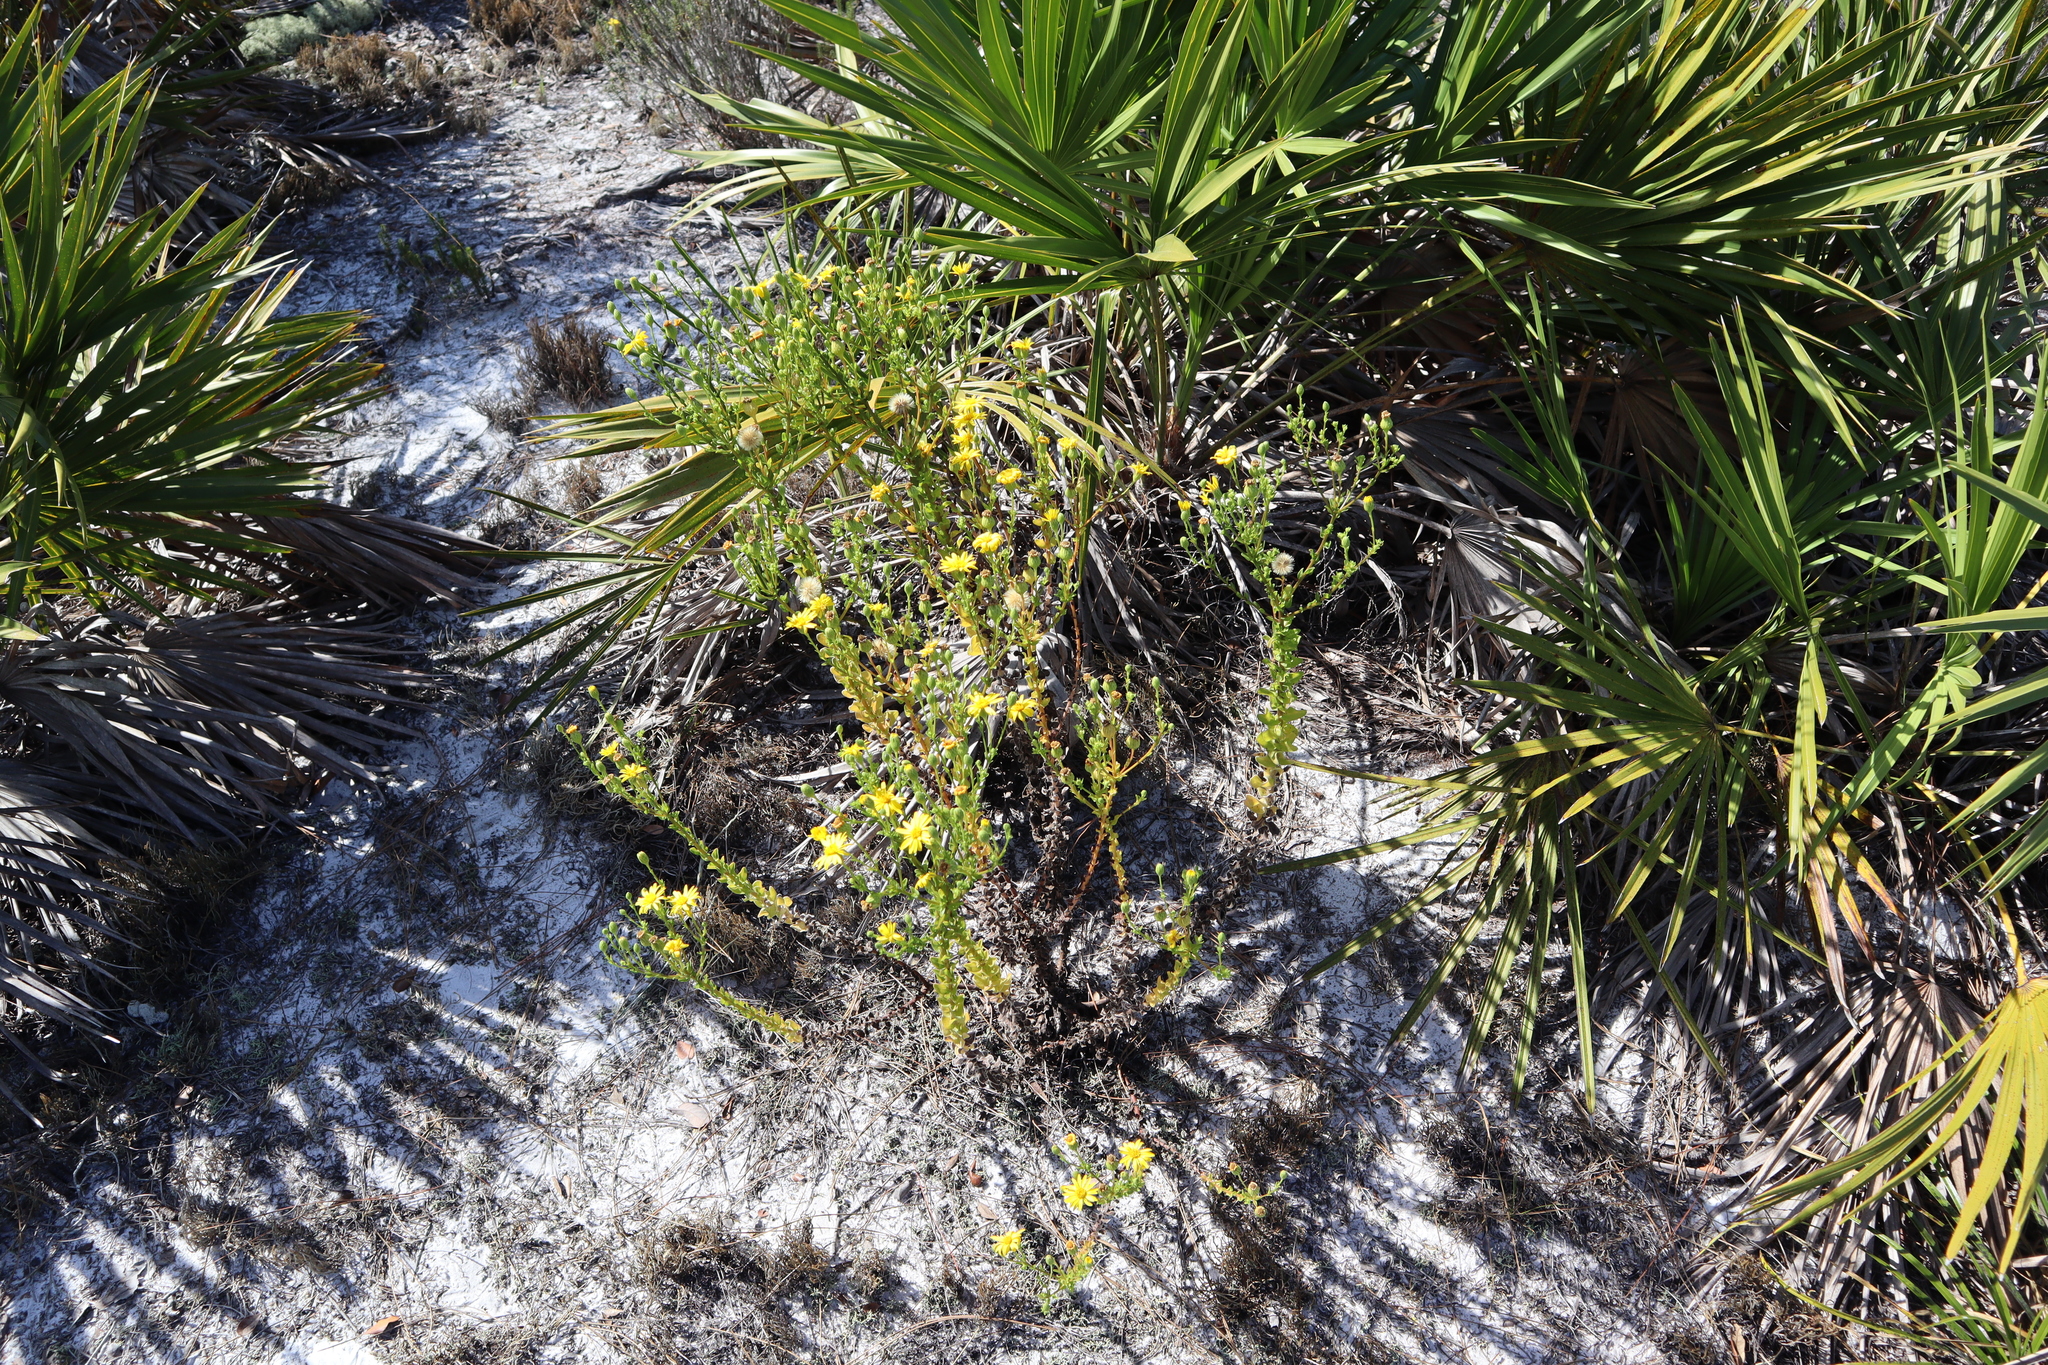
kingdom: Plantae
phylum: Tracheophyta
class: Magnoliopsida
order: Asterales
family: Asteraceae
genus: Chrysopsis
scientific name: Chrysopsis scabrella
